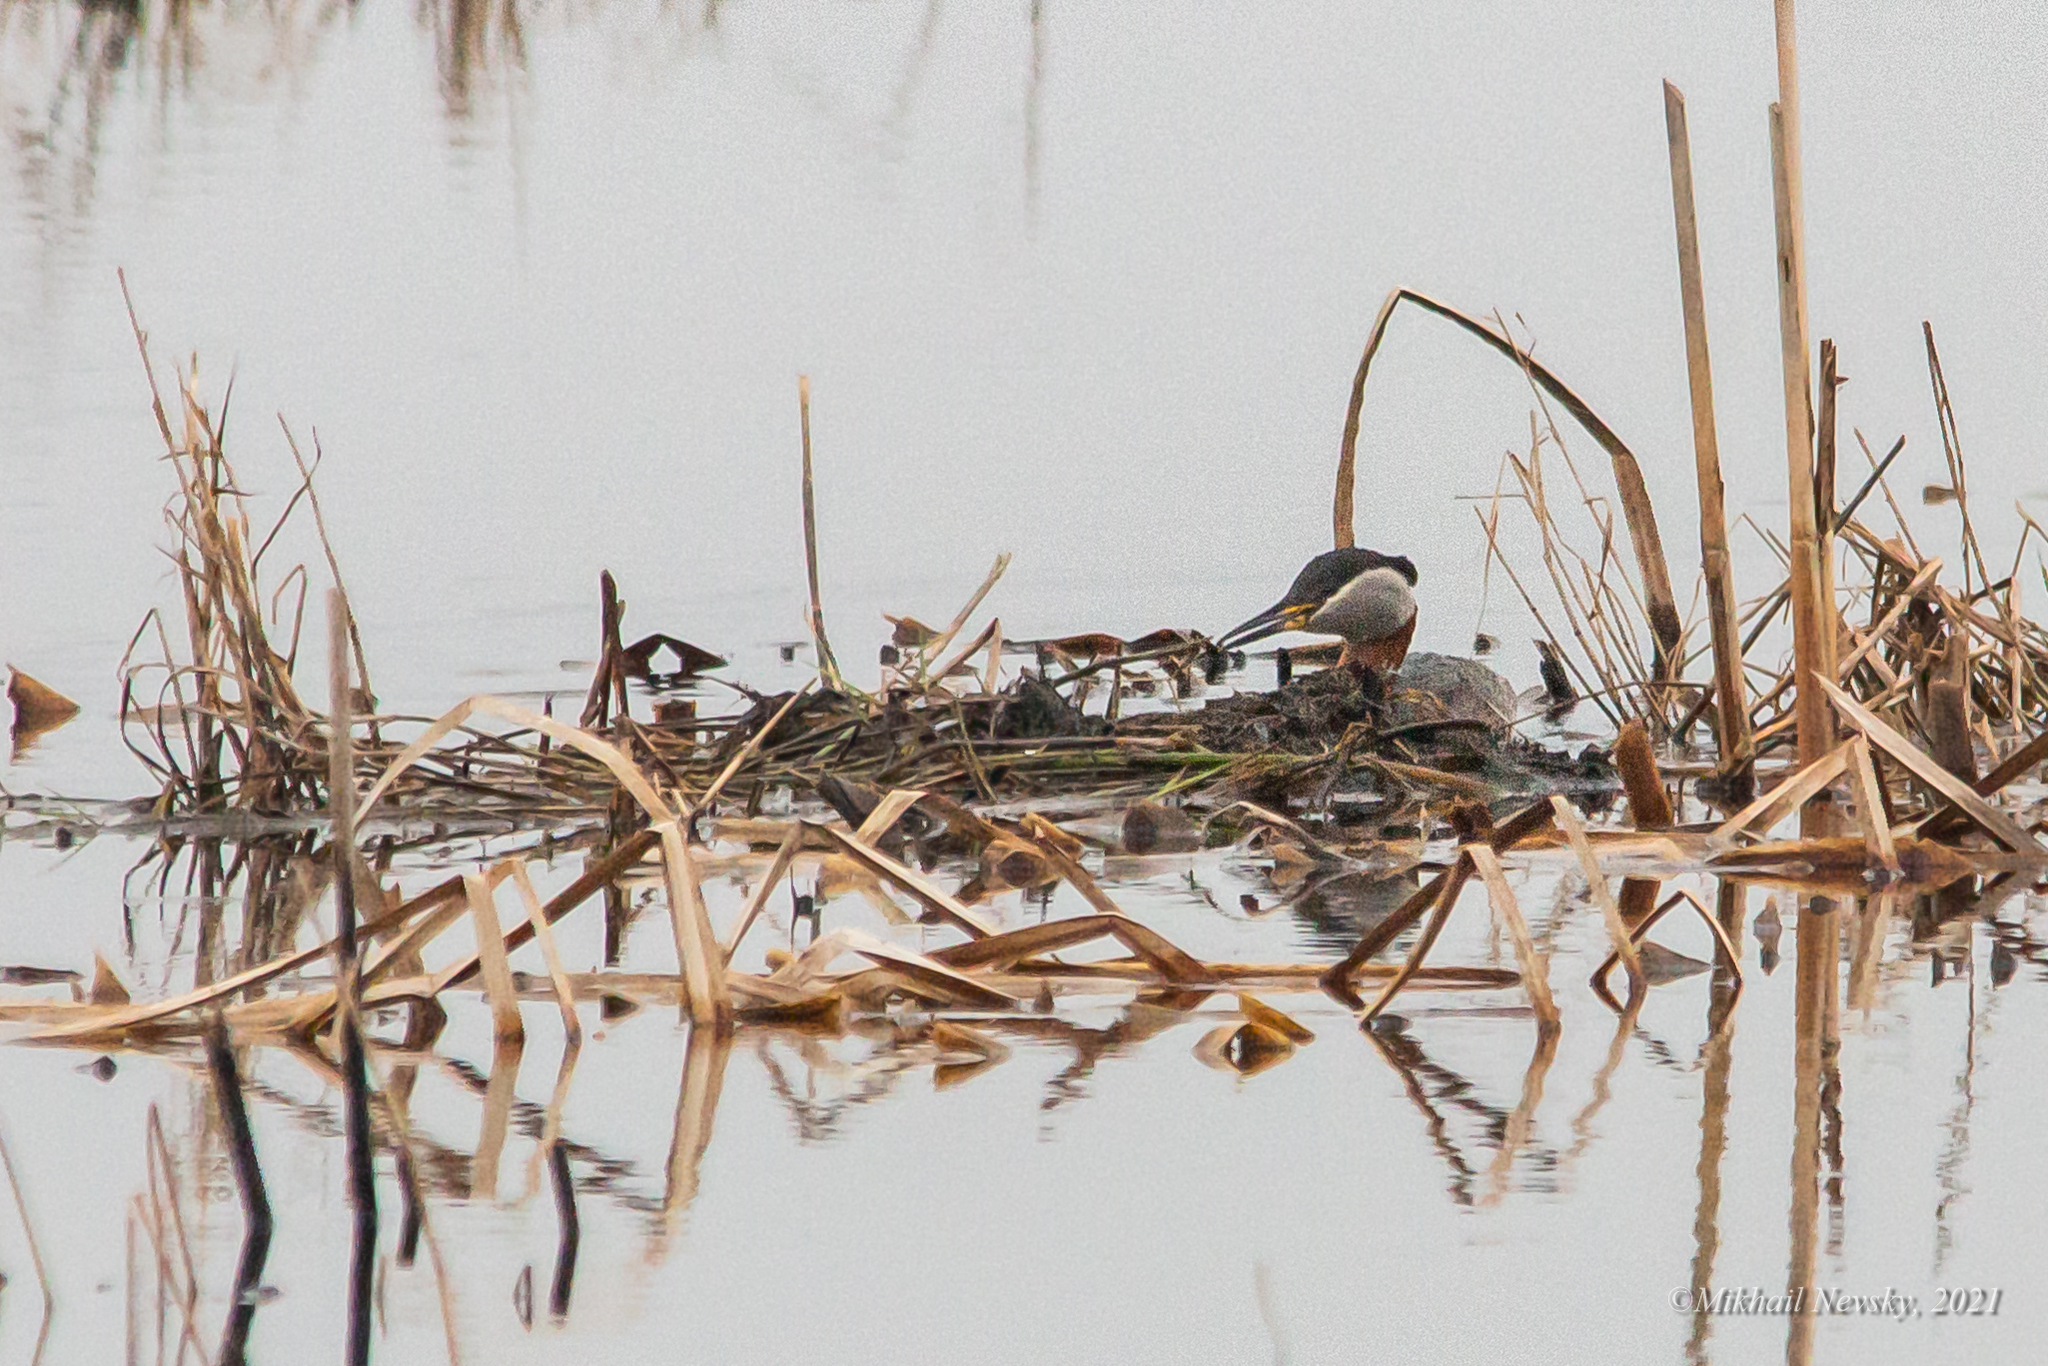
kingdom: Animalia
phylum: Chordata
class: Aves
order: Podicipediformes
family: Podicipedidae
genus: Podiceps
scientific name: Podiceps grisegena
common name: Red-necked grebe
